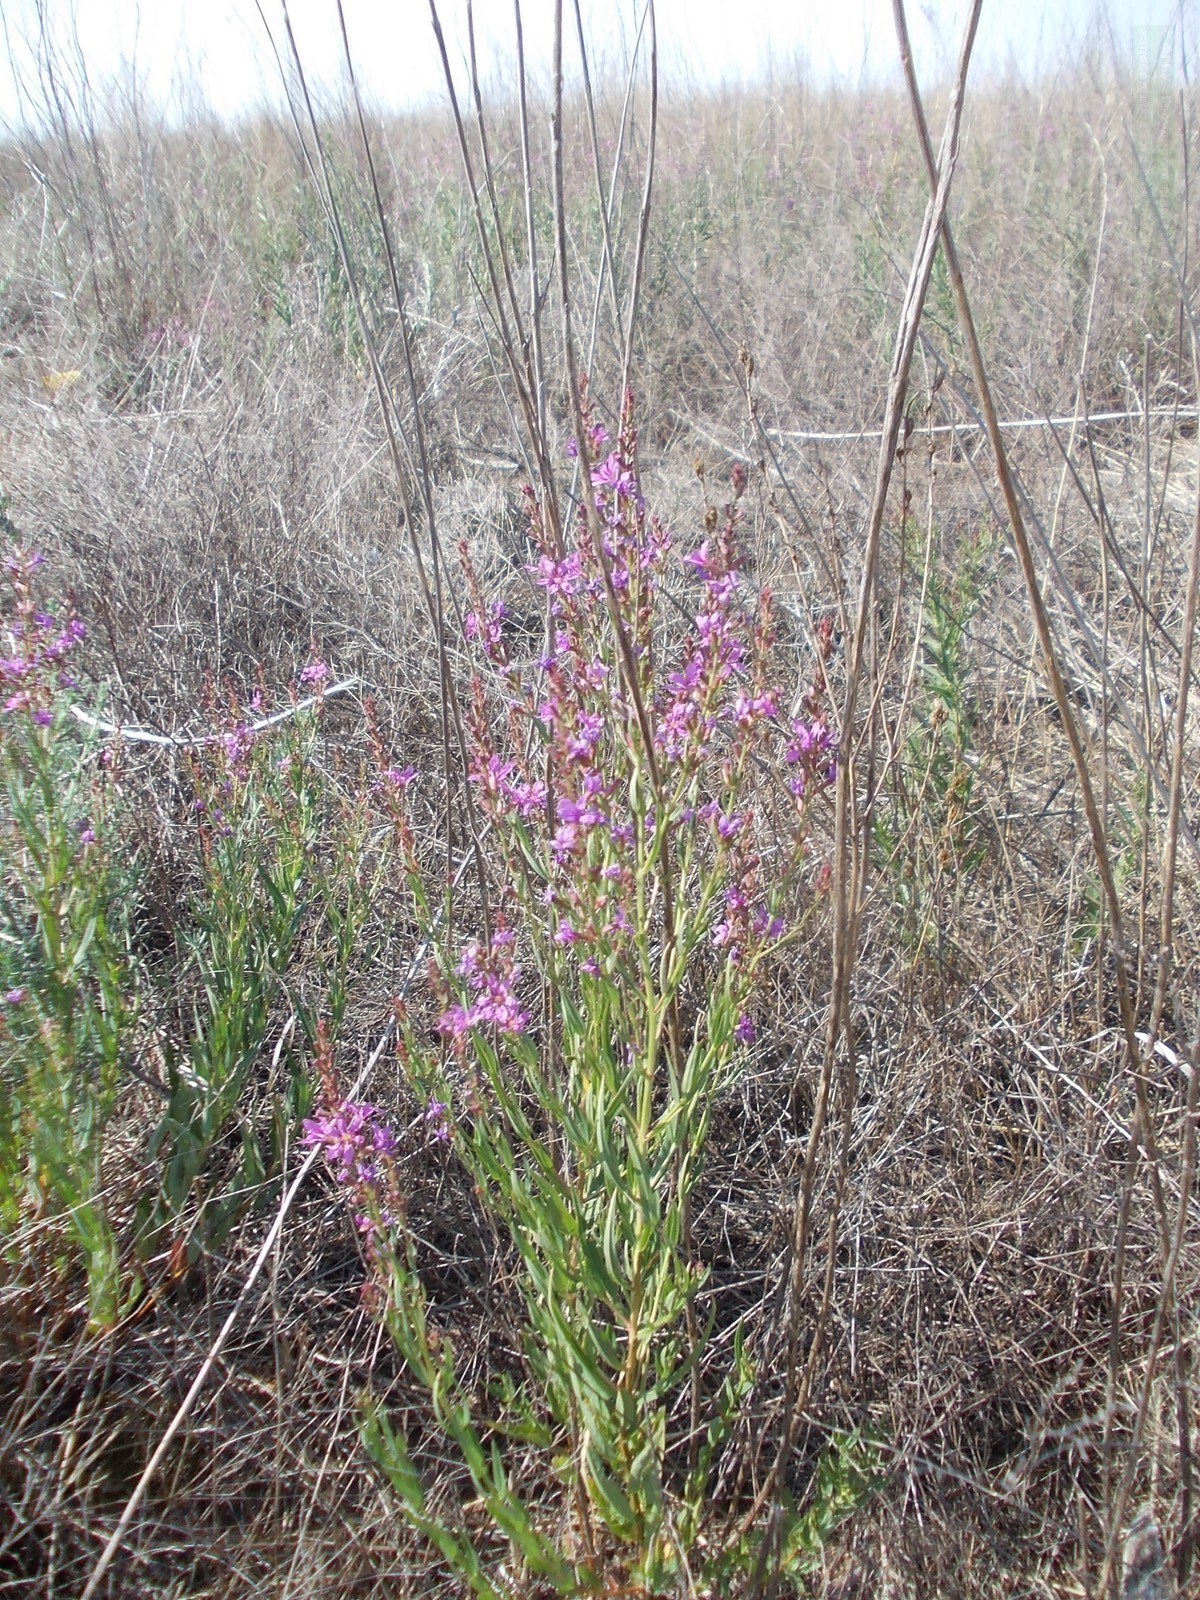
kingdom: Plantae
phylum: Tracheophyta
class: Magnoliopsida
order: Myrtales
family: Lythraceae
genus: Lythrum
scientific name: Lythrum virgatum
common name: European wand loosestrife
